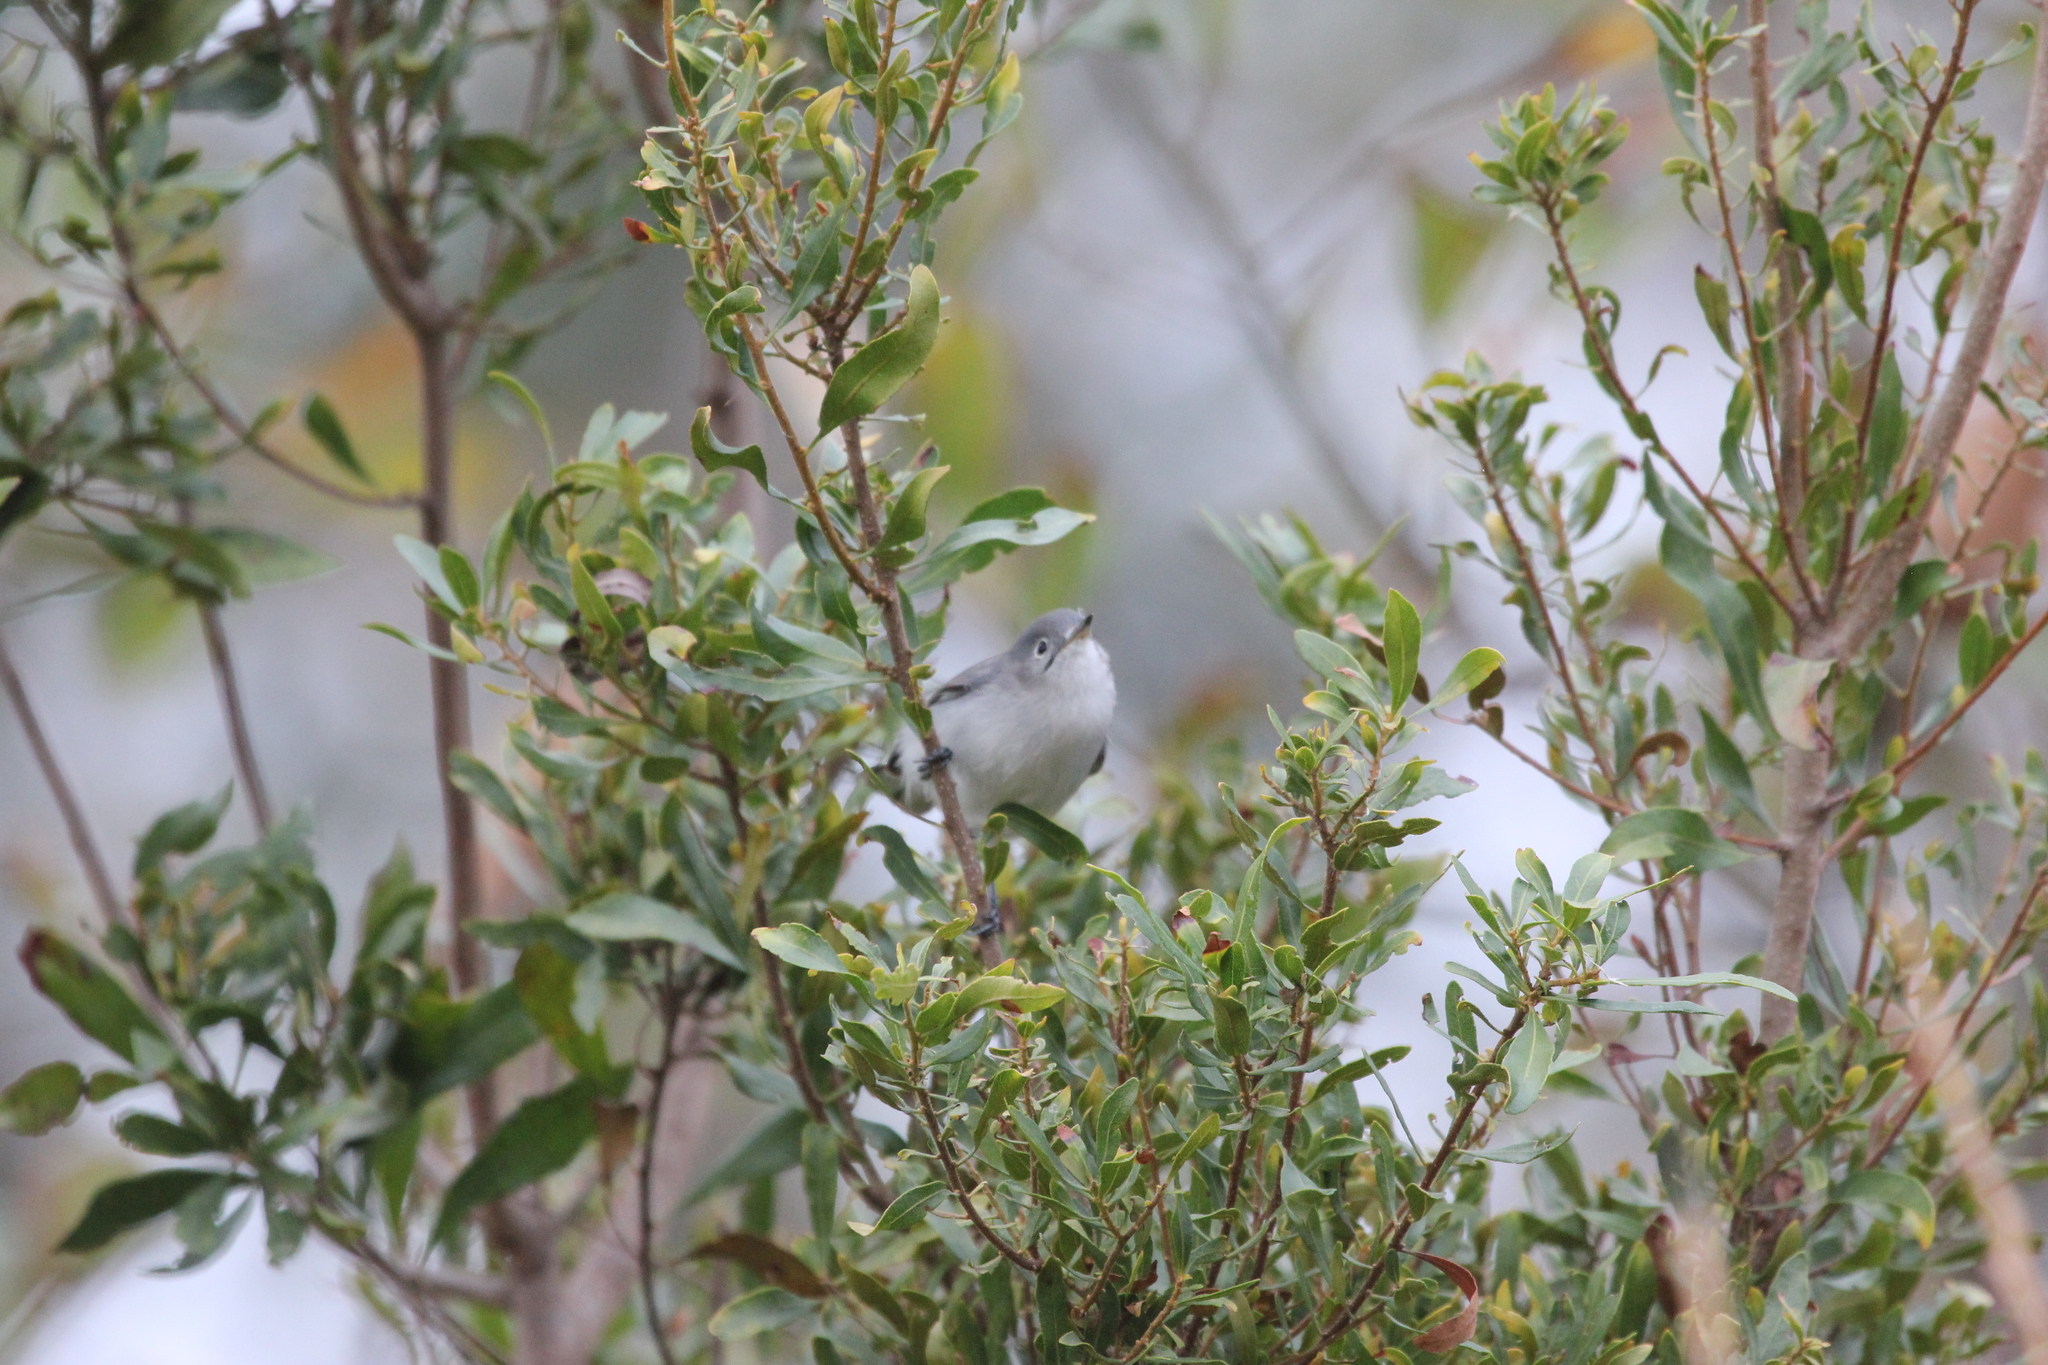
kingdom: Animalia
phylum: Chordata
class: Aves
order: Passeriformes
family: Polioptilidae
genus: Polioptila
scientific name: Polioptila caerulea
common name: Blue-gray gnatcatcher
